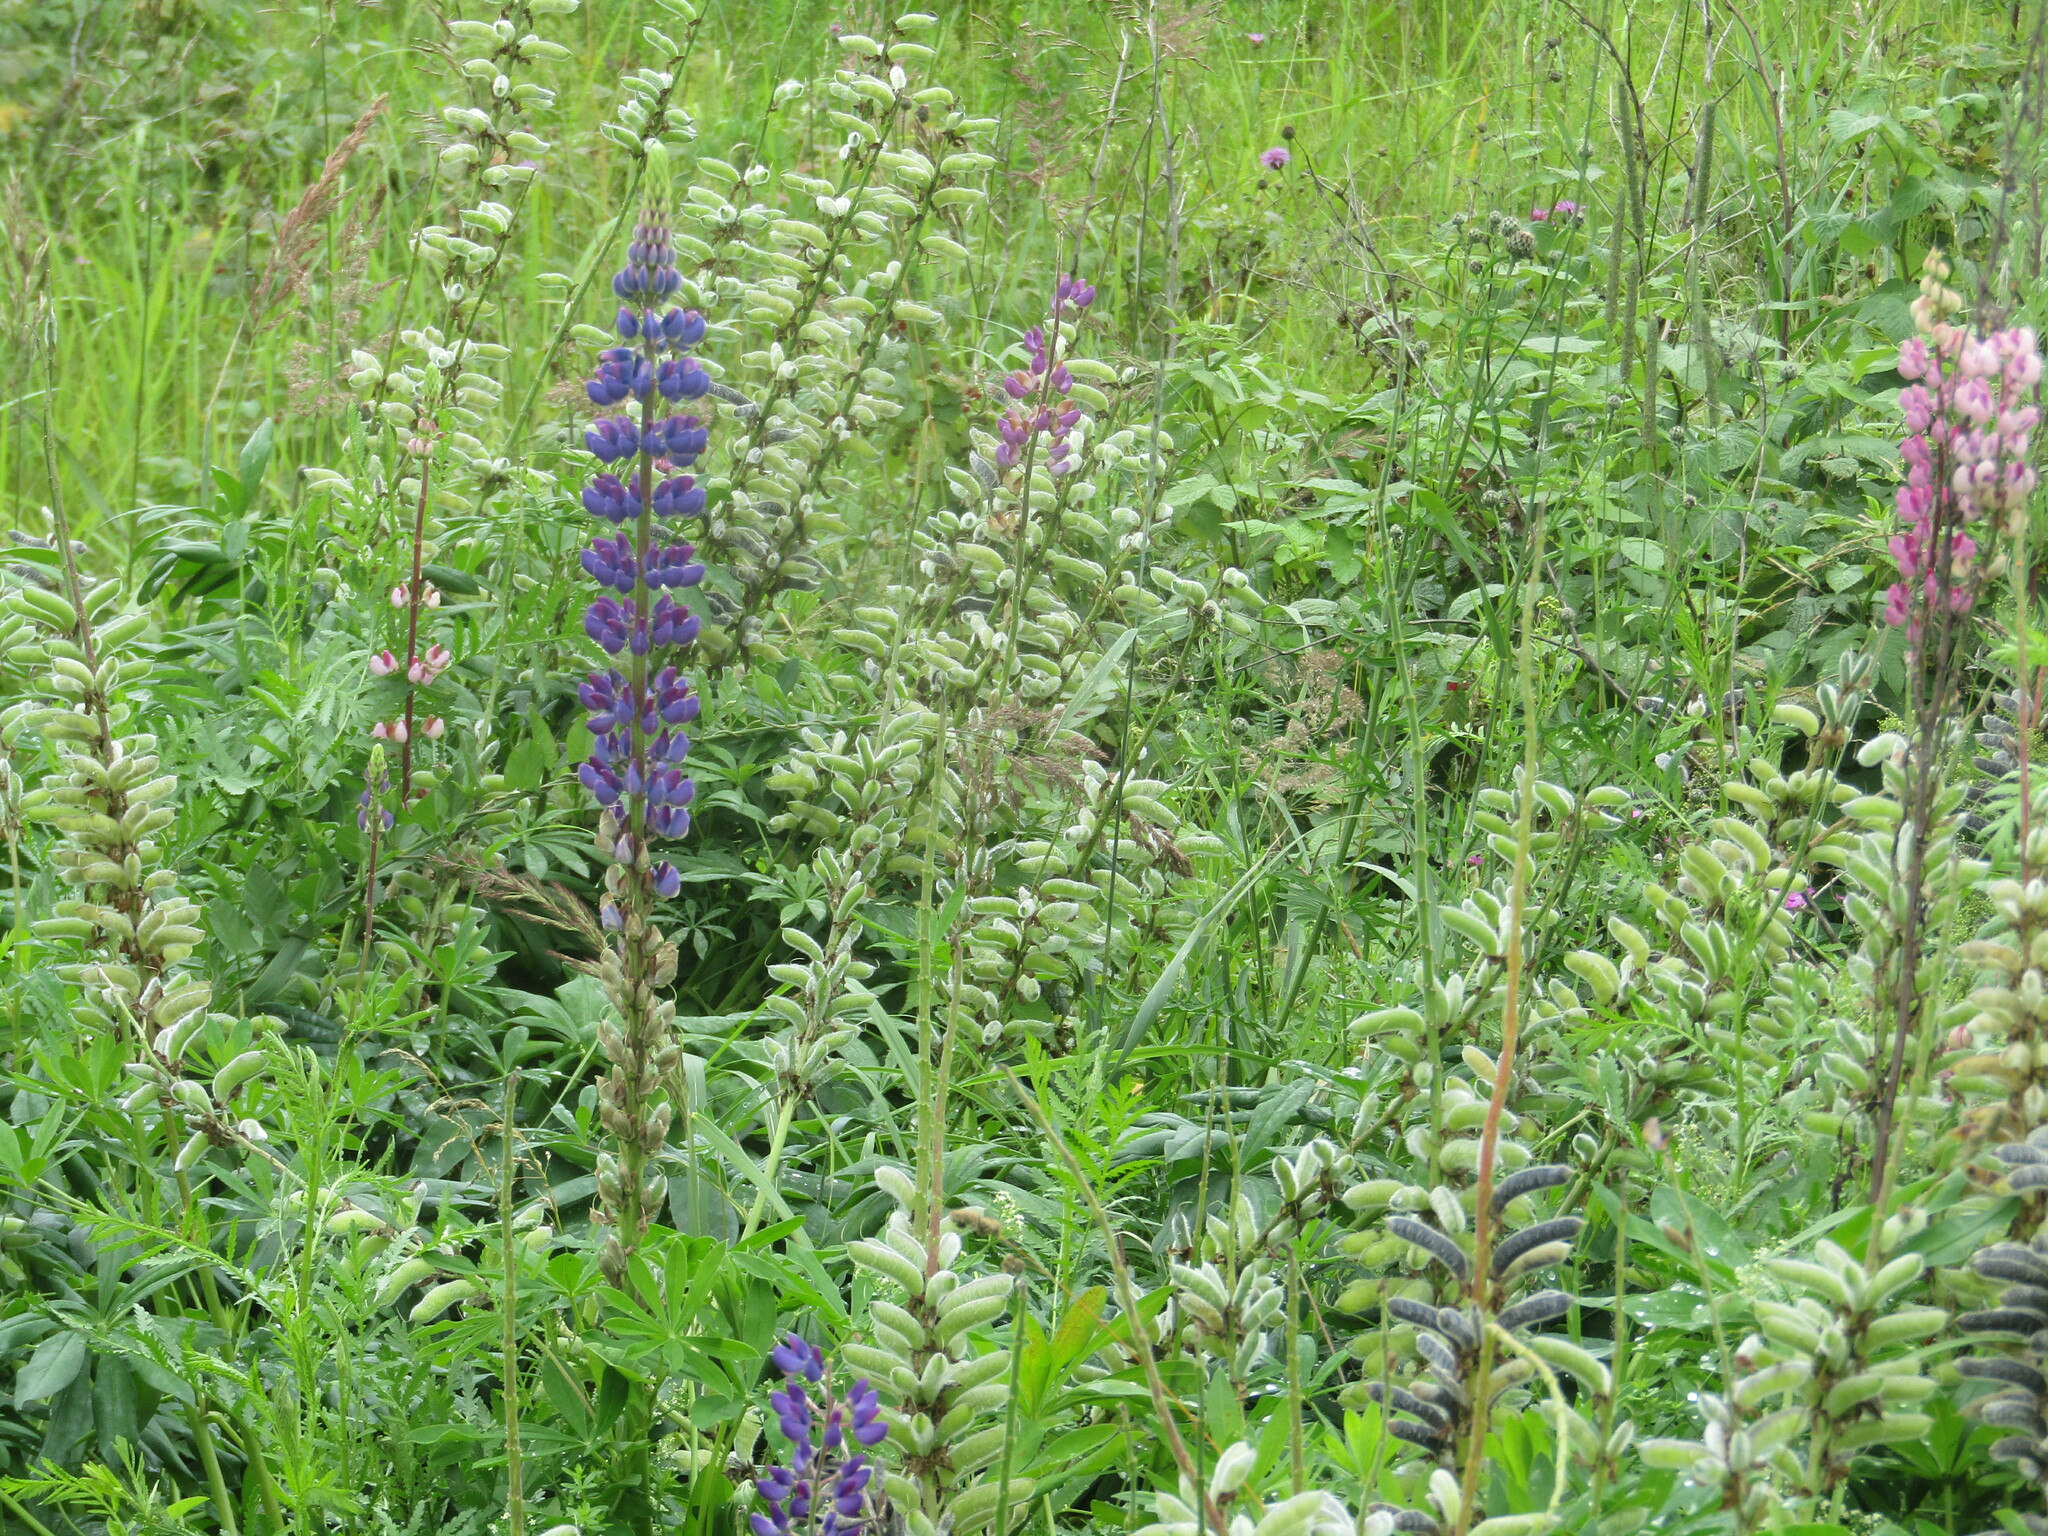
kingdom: Plantae
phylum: Tracheophyta
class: Magnoliopsida
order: Fabales
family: Fabaceae
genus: Lupinus
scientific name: Lupinus polyphyllus
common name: Garden lupin
